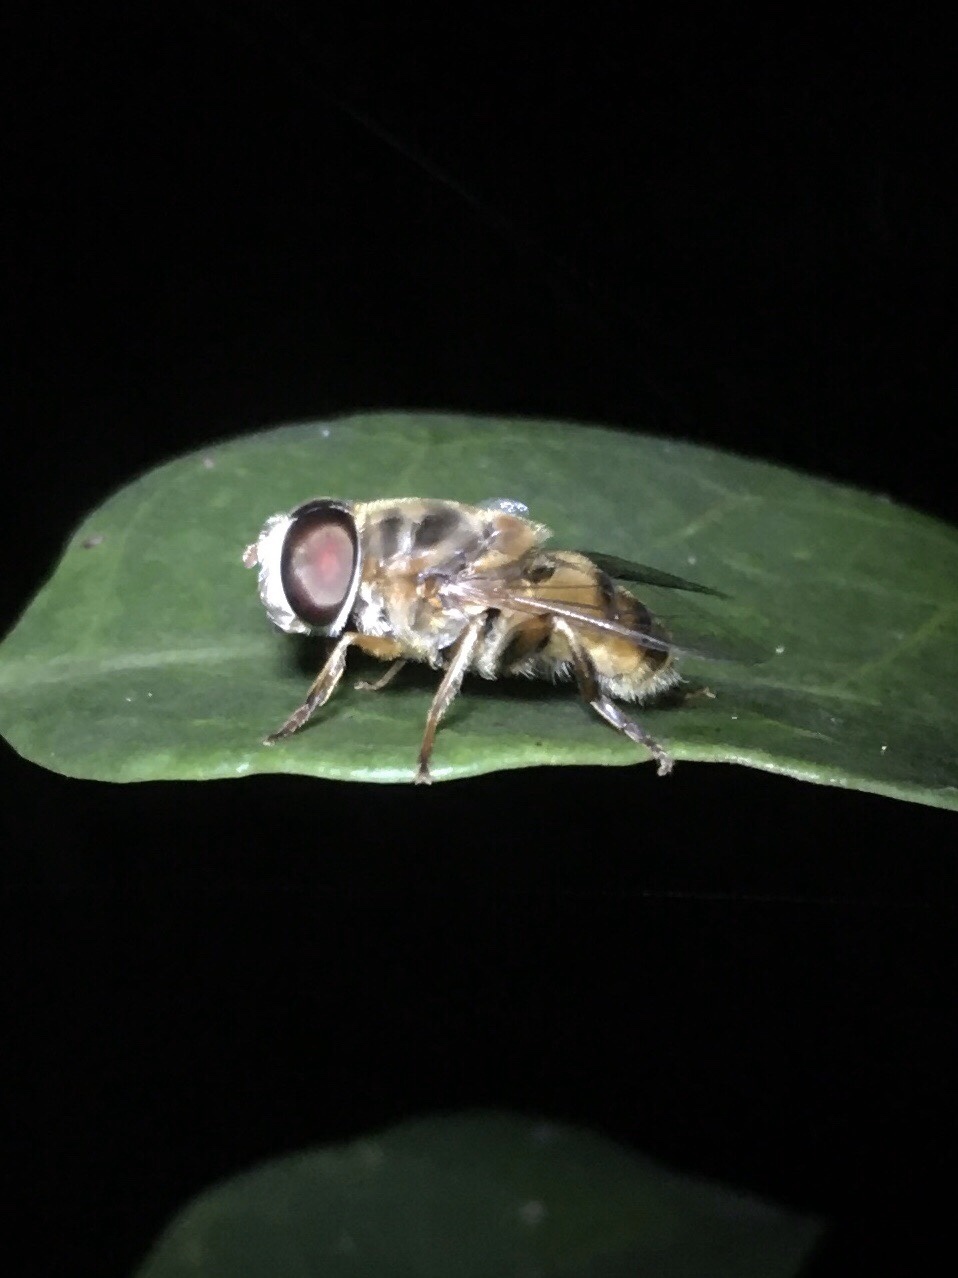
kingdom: Animalia
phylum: Arthropoda
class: Insecta
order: Diptera
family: Syrphidae
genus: Palpada
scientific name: Palpada vinetorum
